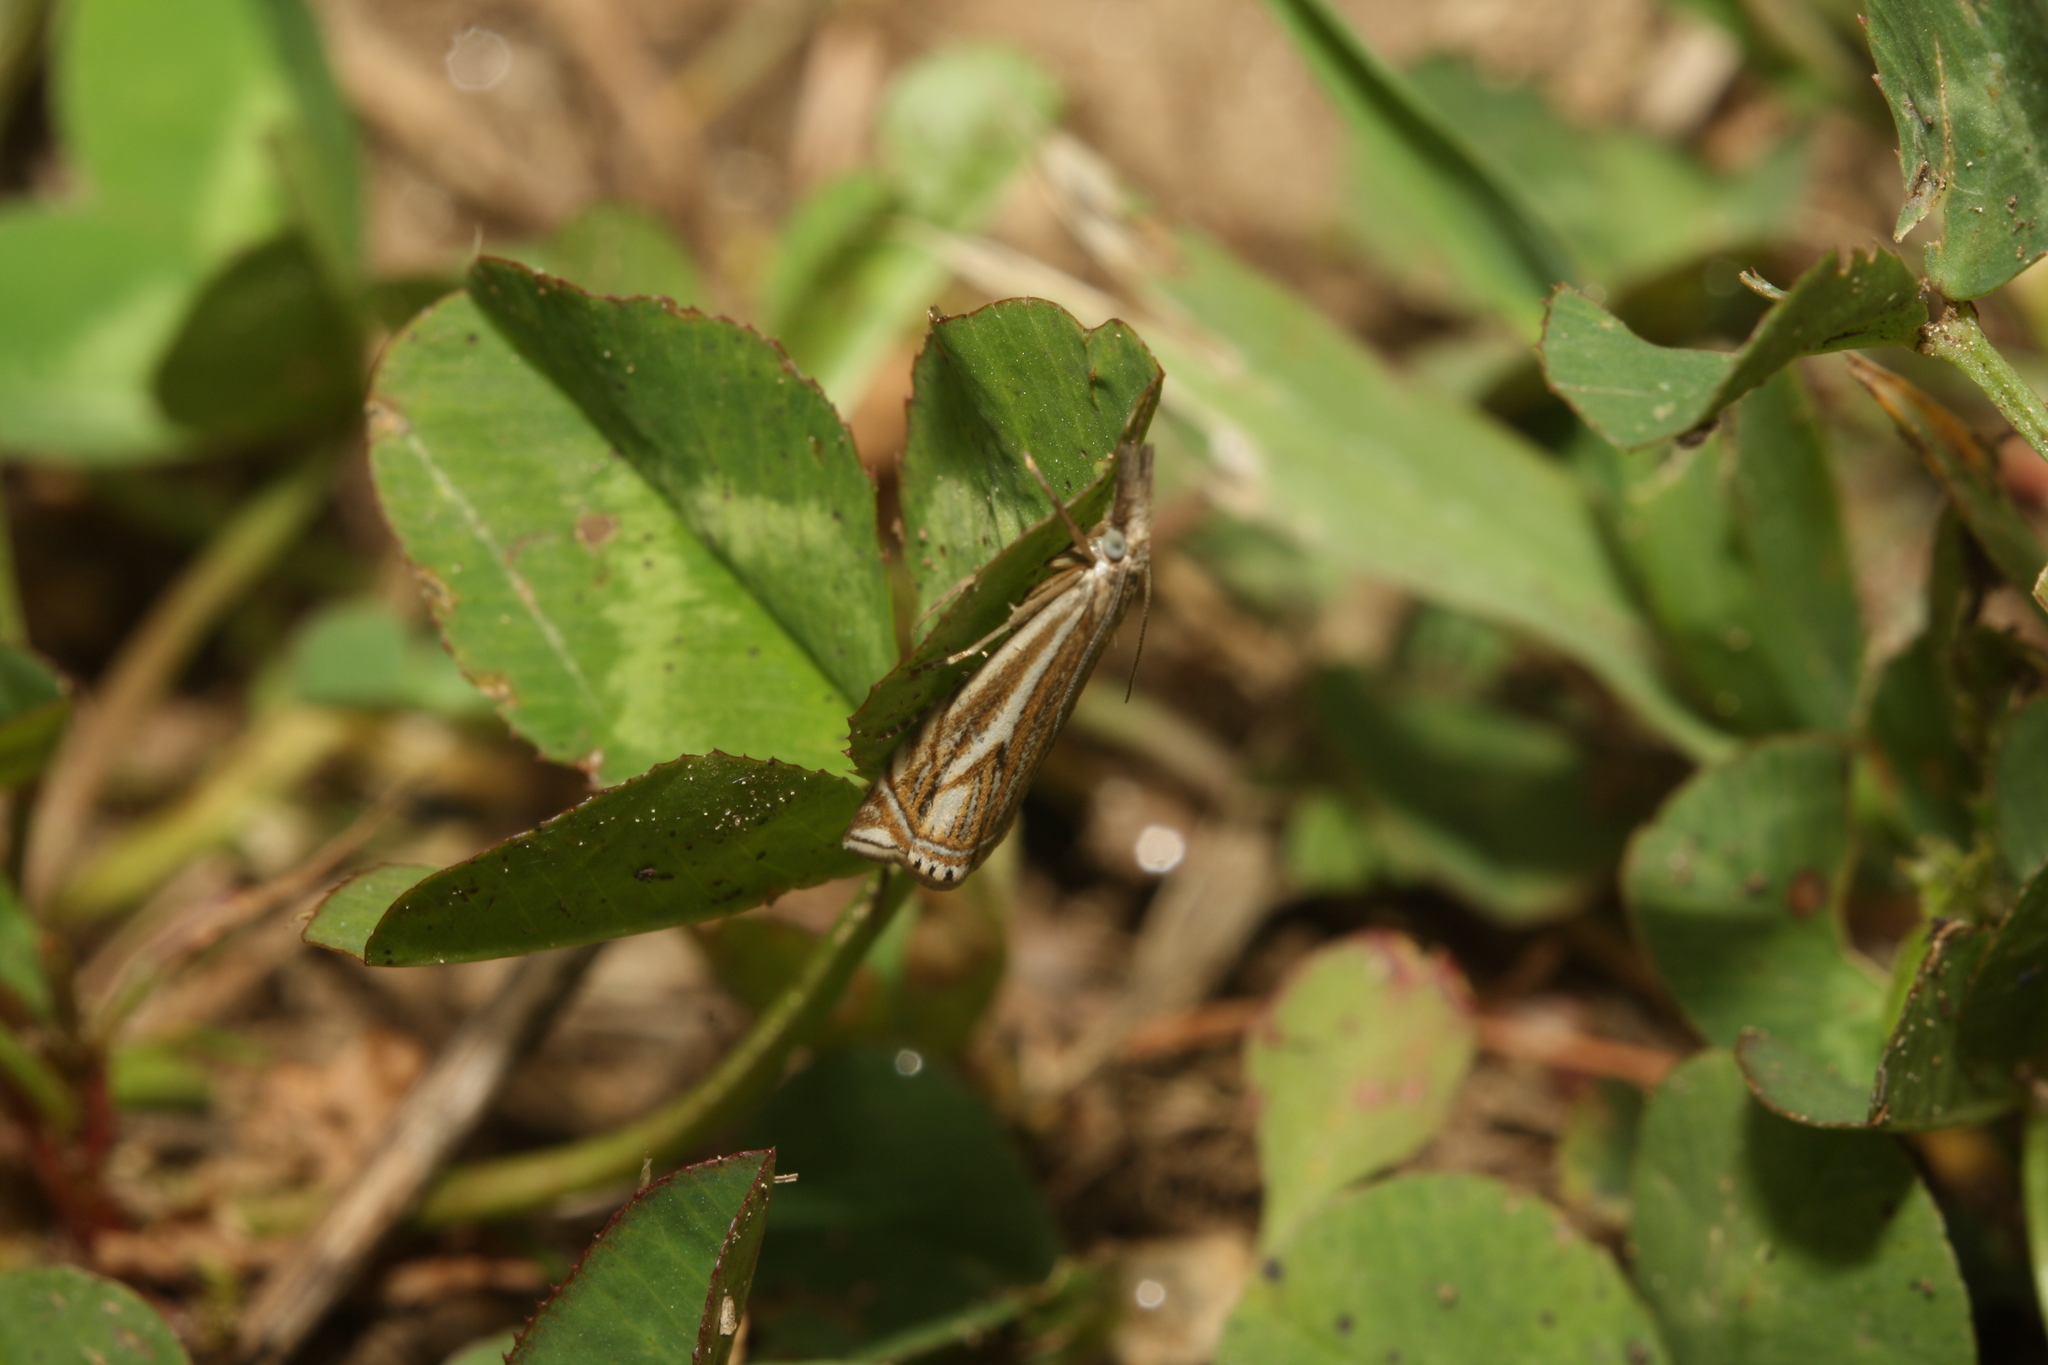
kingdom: Animalia
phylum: Arthropoda
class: Insecta
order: Lepidoptera
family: Crambidae
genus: Crambus
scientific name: Crambus nemorella
